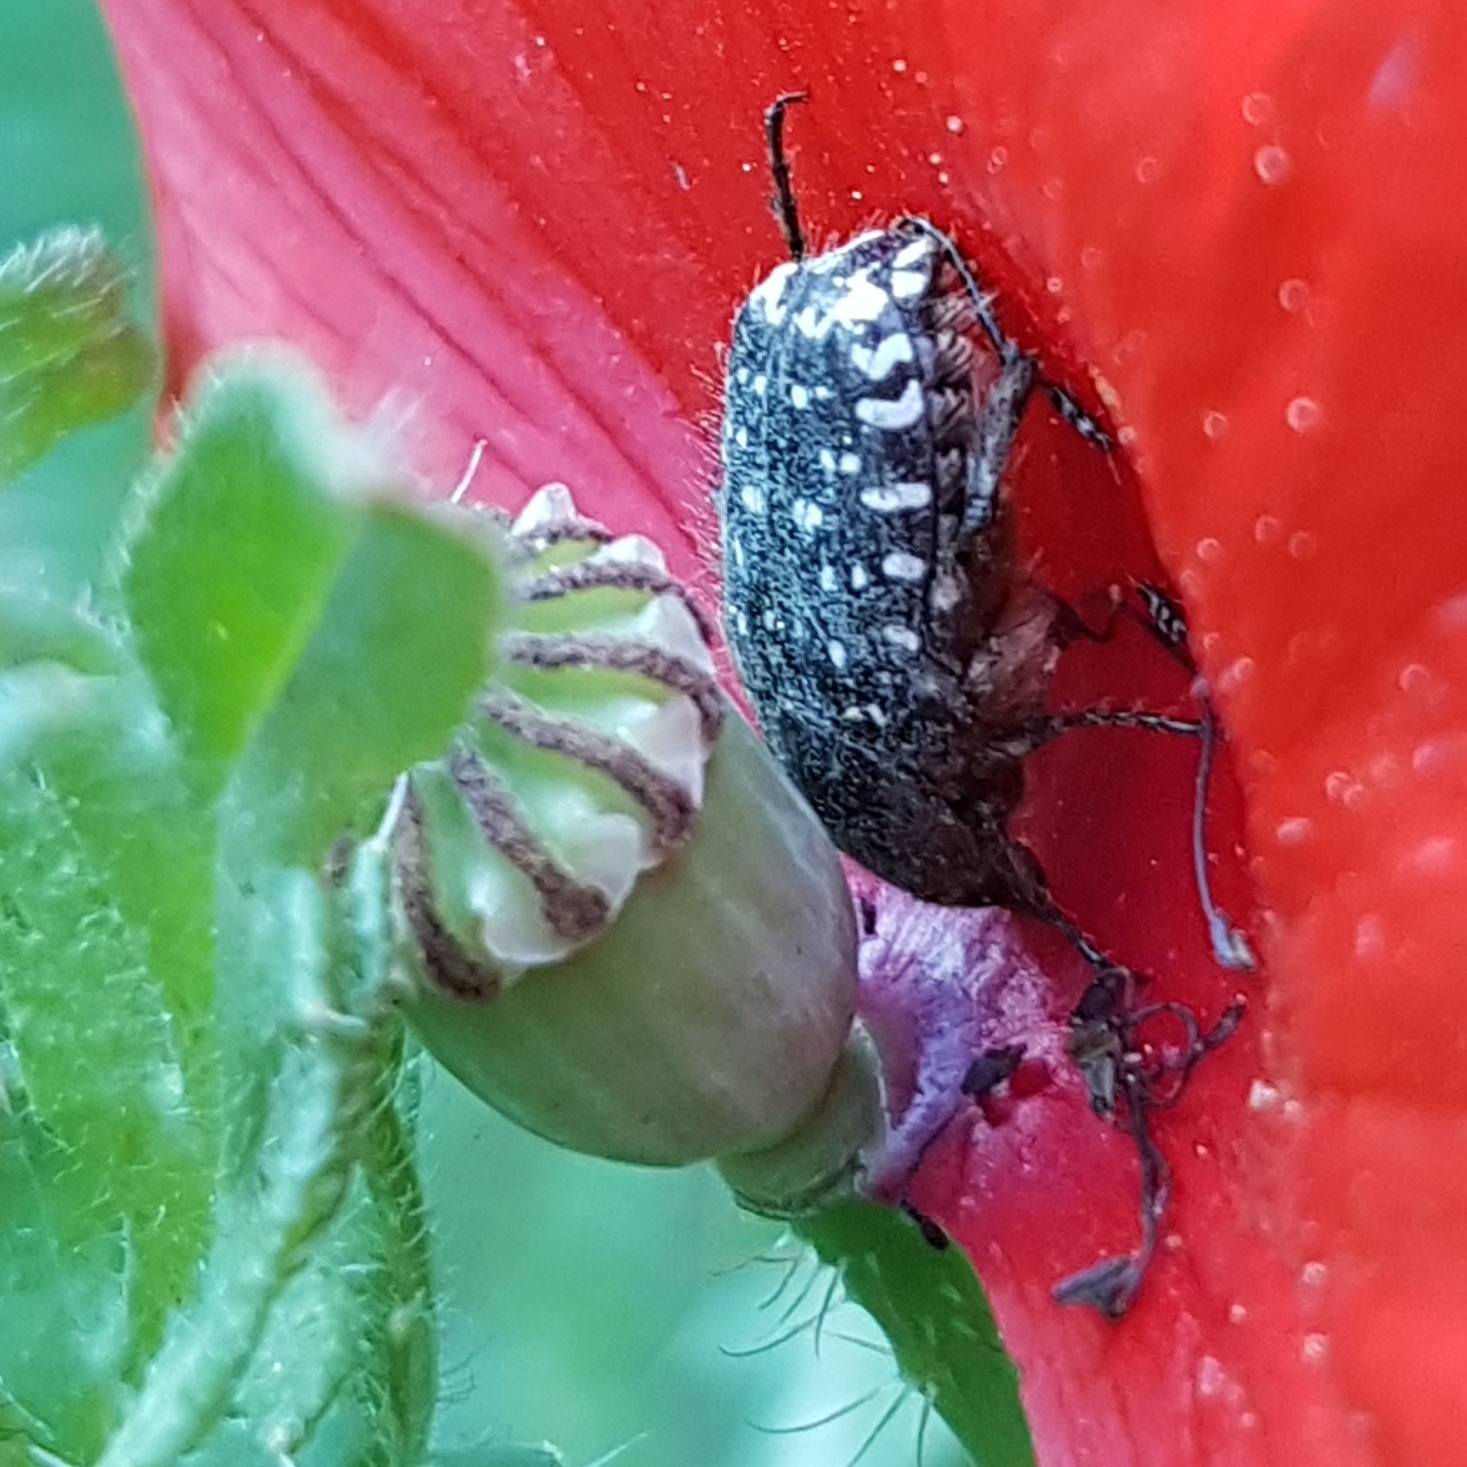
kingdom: Animalia
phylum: Arthropoda
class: Insecta
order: Coleoptera
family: Scarabaeidae
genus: Oxythyrea
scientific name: Oxythyrea funesta
